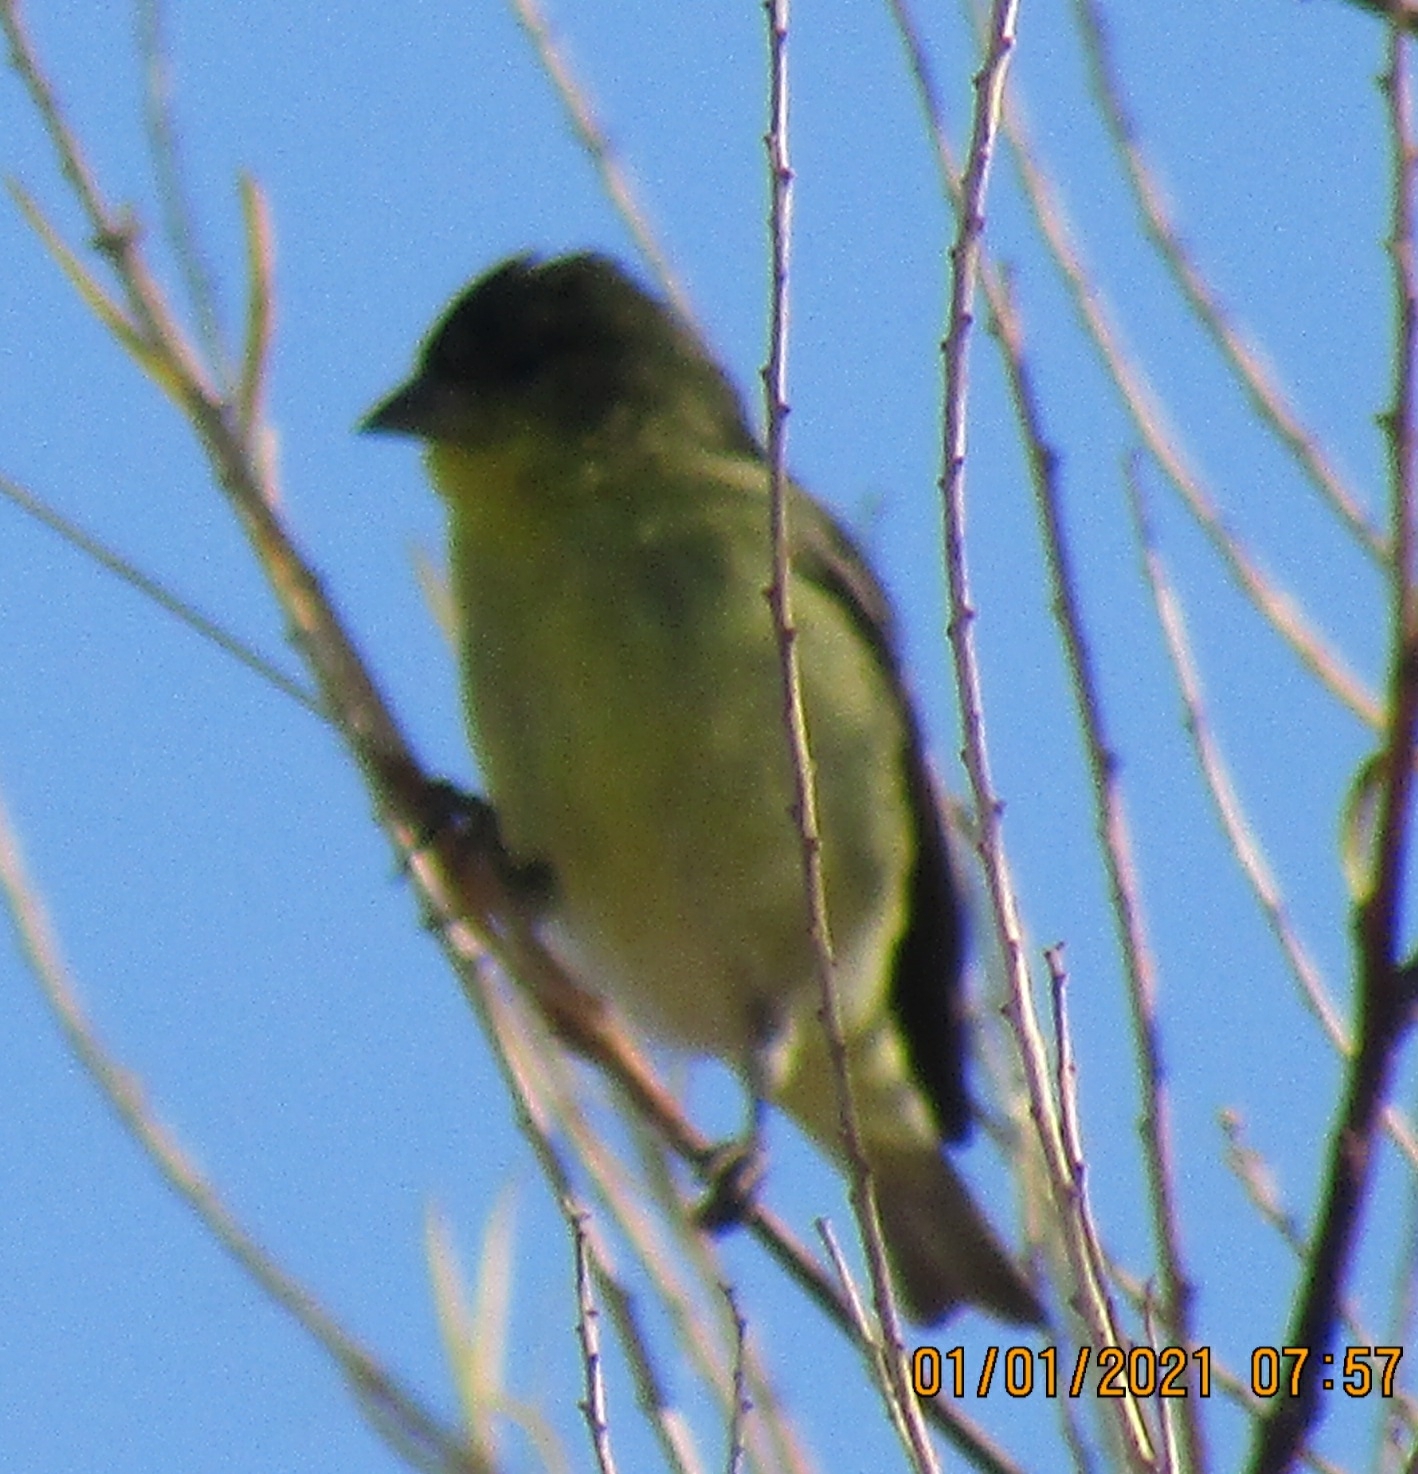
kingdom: Animalia
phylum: Chordata
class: Aves
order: Passeriformes
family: Fringillidae
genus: Spinus
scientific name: Spinus psaltria
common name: Lesser goldfinch
